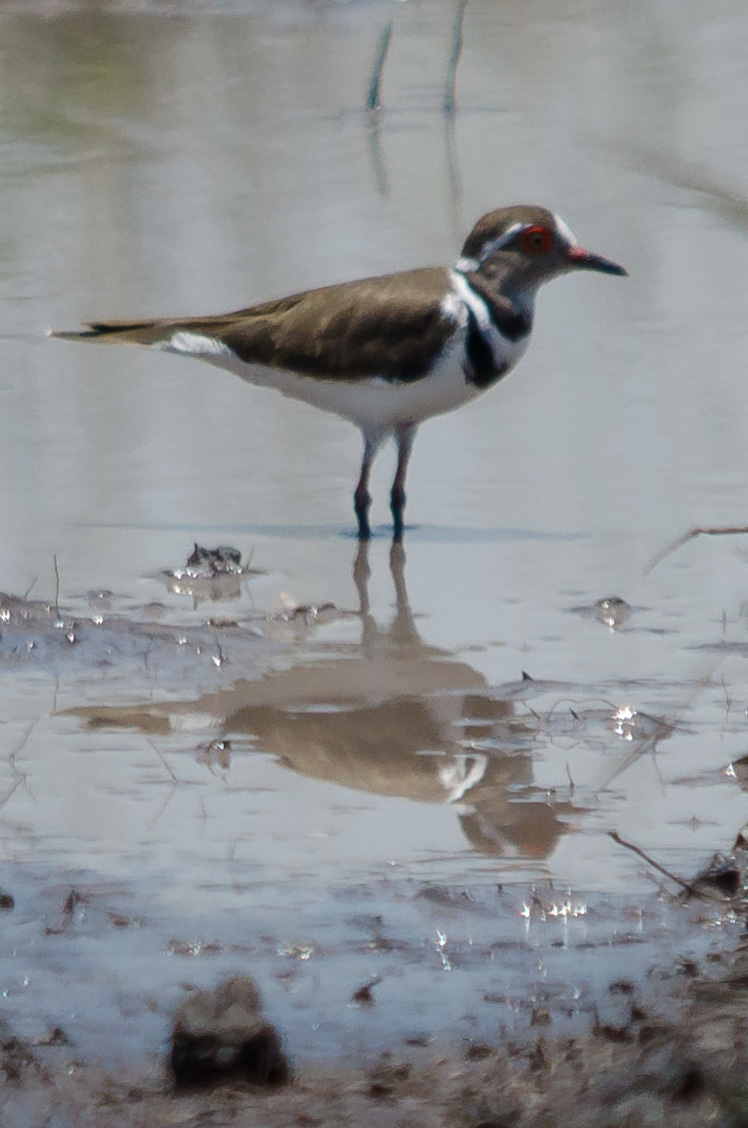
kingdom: Animalia
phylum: Chordata
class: Aves
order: Charadriiformes
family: Charadriidae
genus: Charadrius
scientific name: Charadrius tricollaris
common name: Three-banded plover
